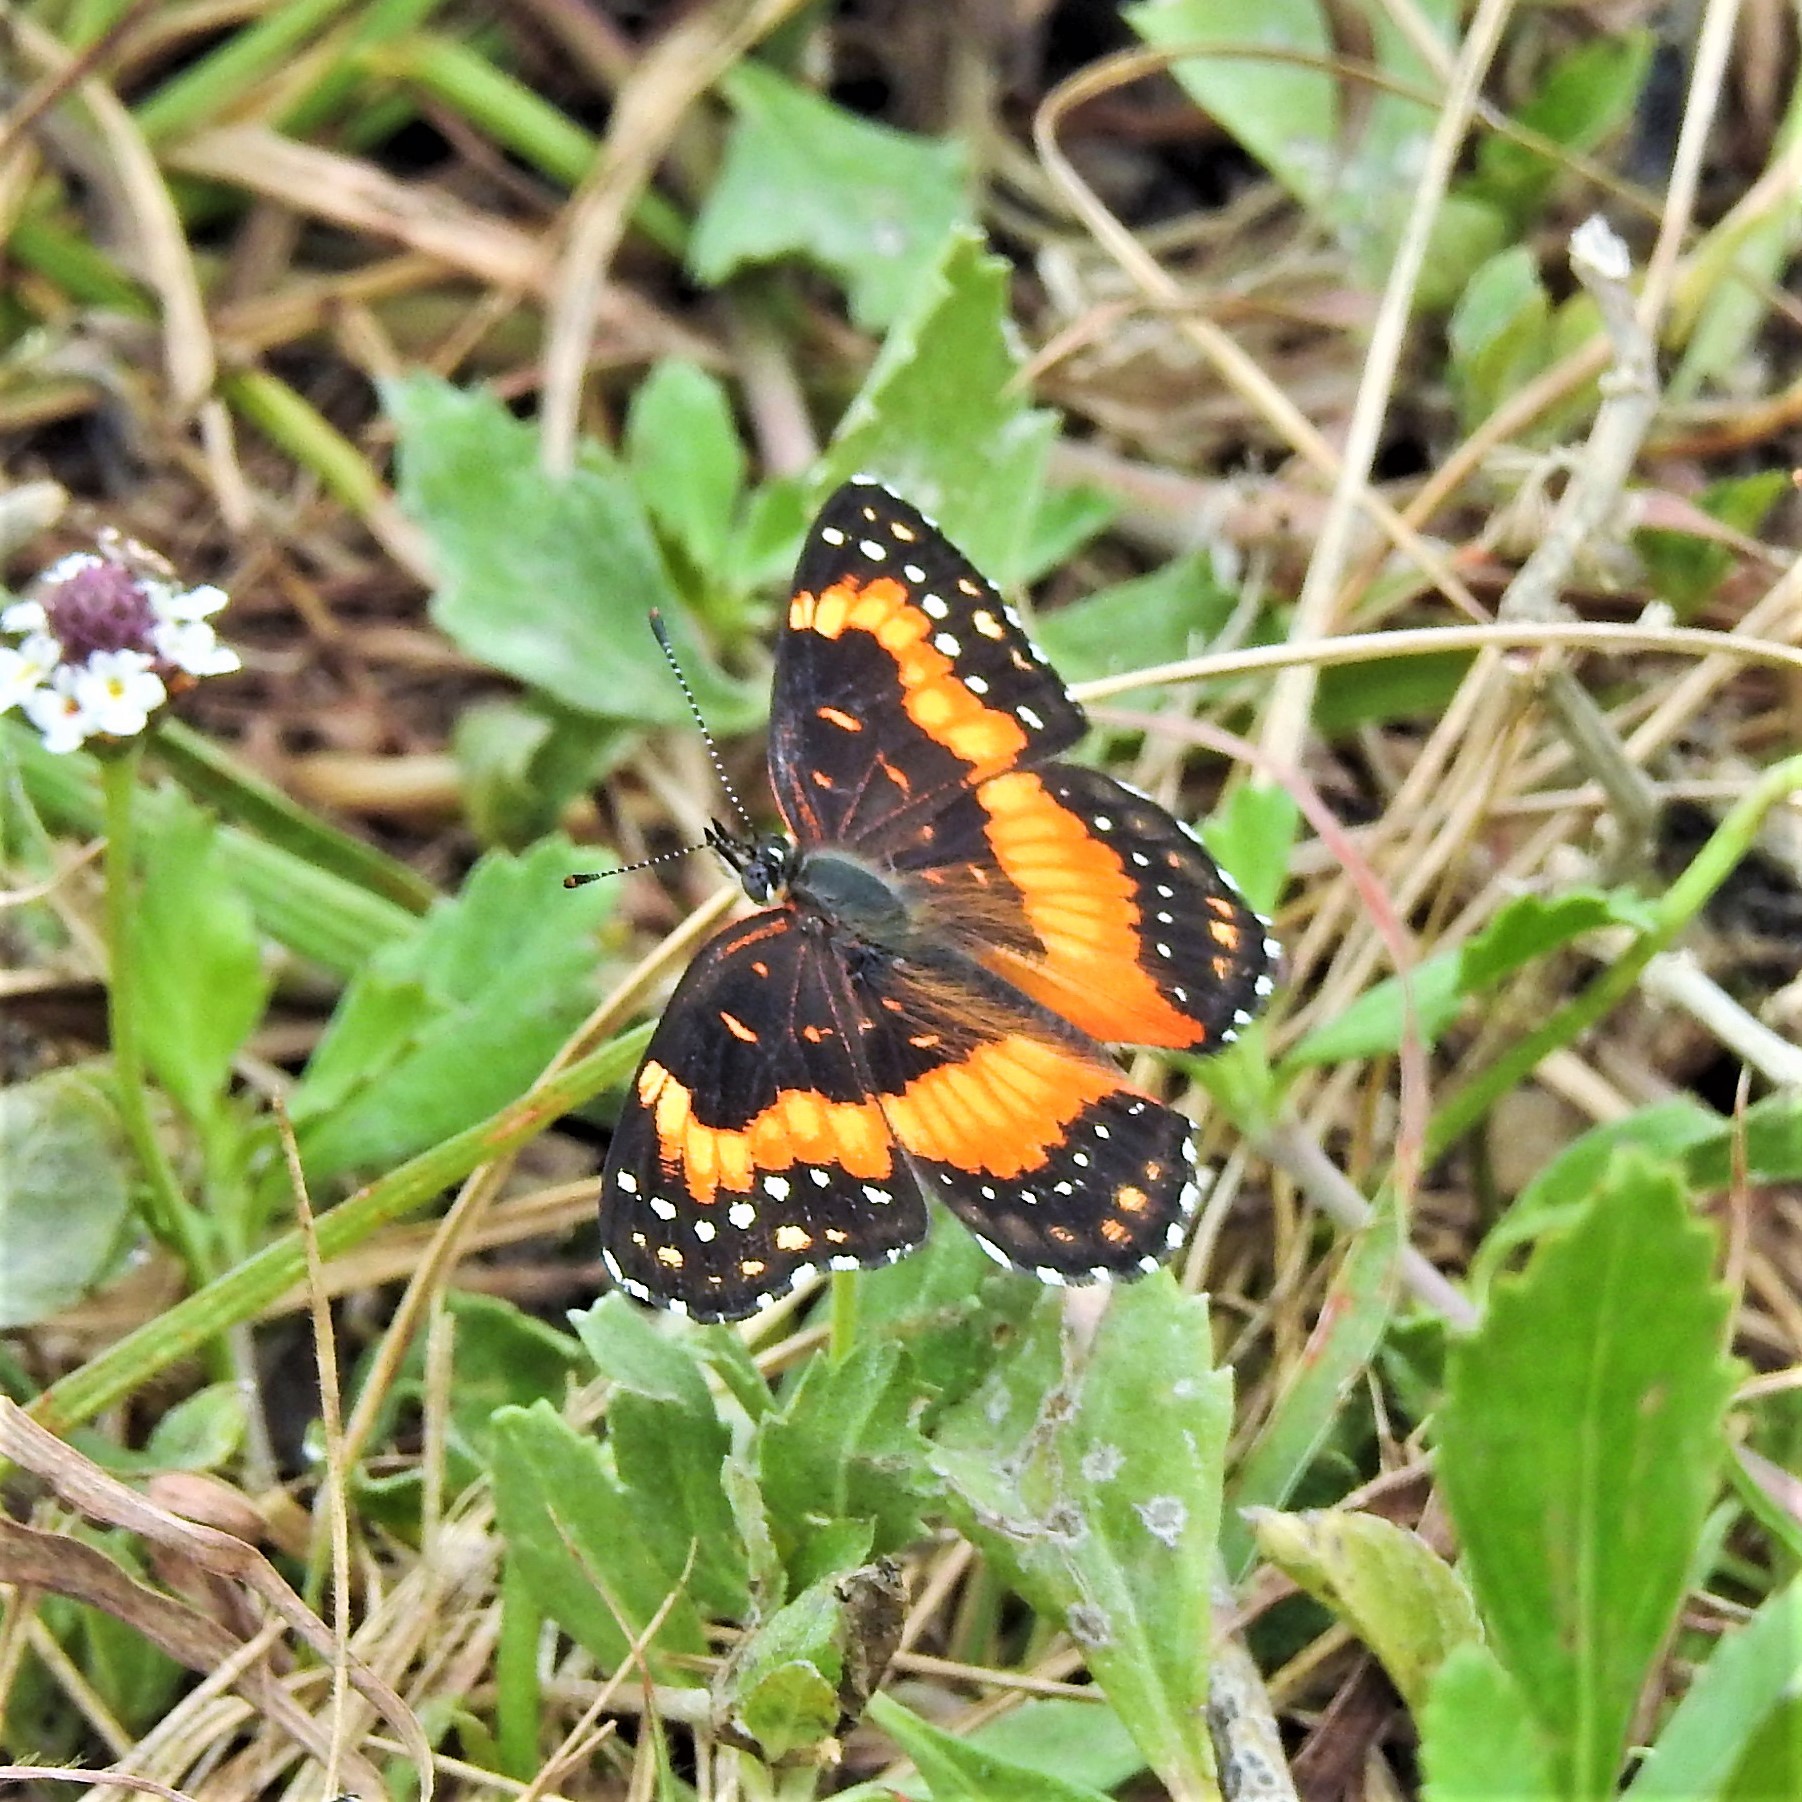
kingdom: Animalia
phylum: Arthropoda
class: Insecta
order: Lepidoptera
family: Nymphalidae
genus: Chlosyne
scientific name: Chlosyne lacinia
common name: Bordered patch
